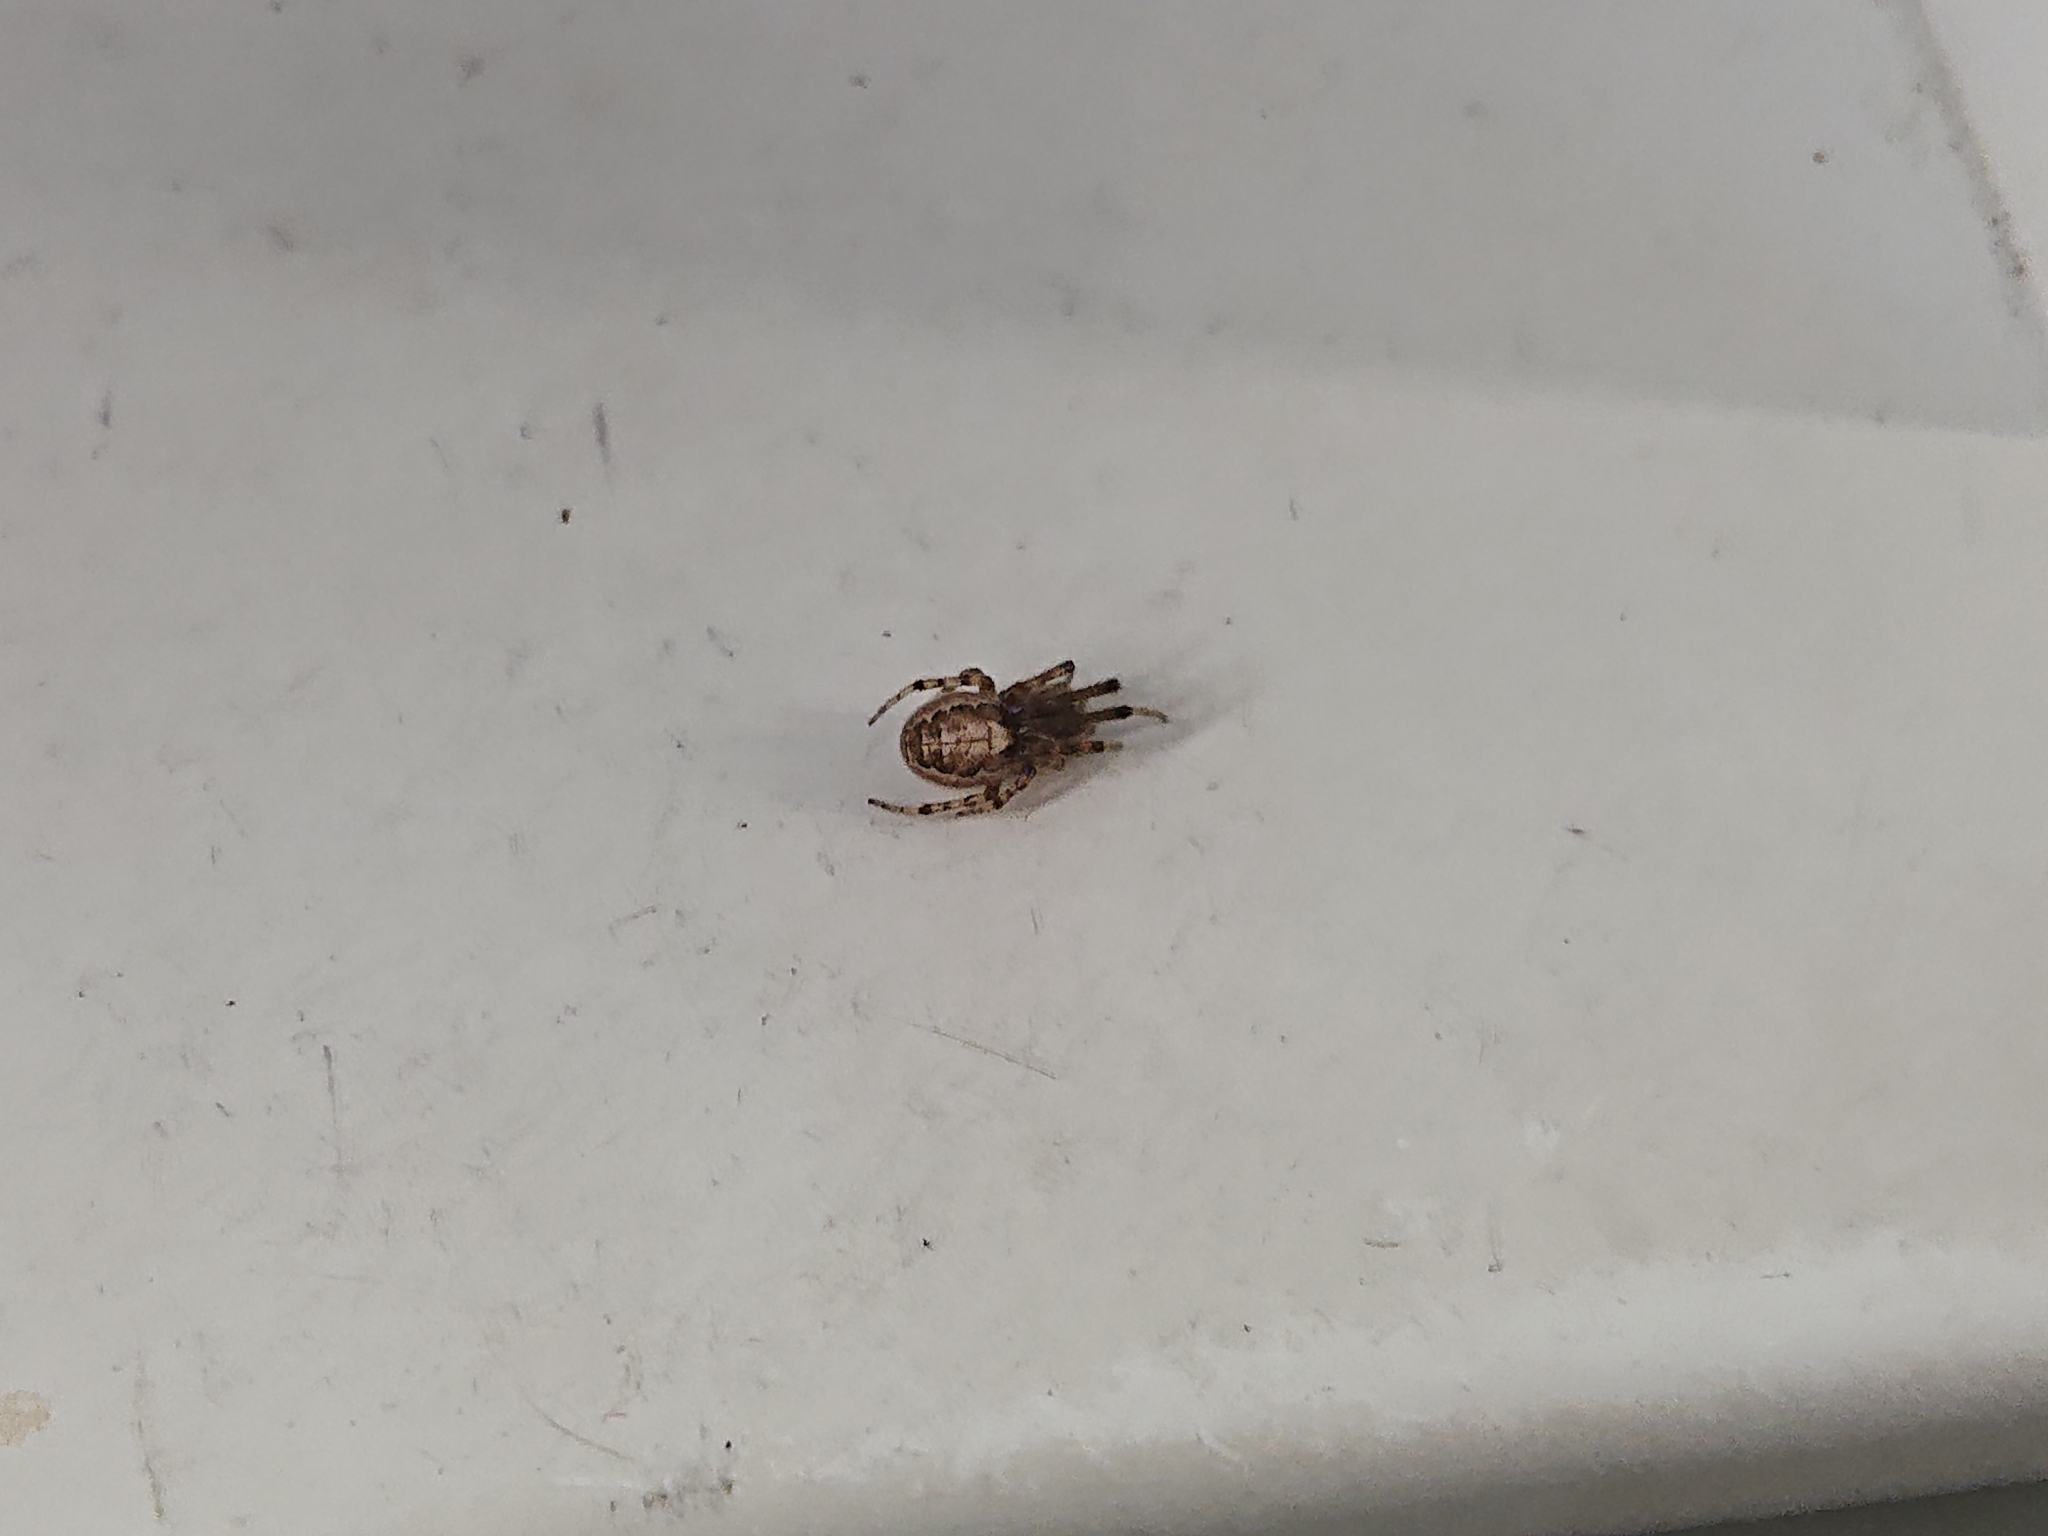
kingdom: Animalia
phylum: Arthropoda
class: Arachnida
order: Araneae
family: Araneidae
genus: Zygiella
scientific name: Zygiella x-notata
